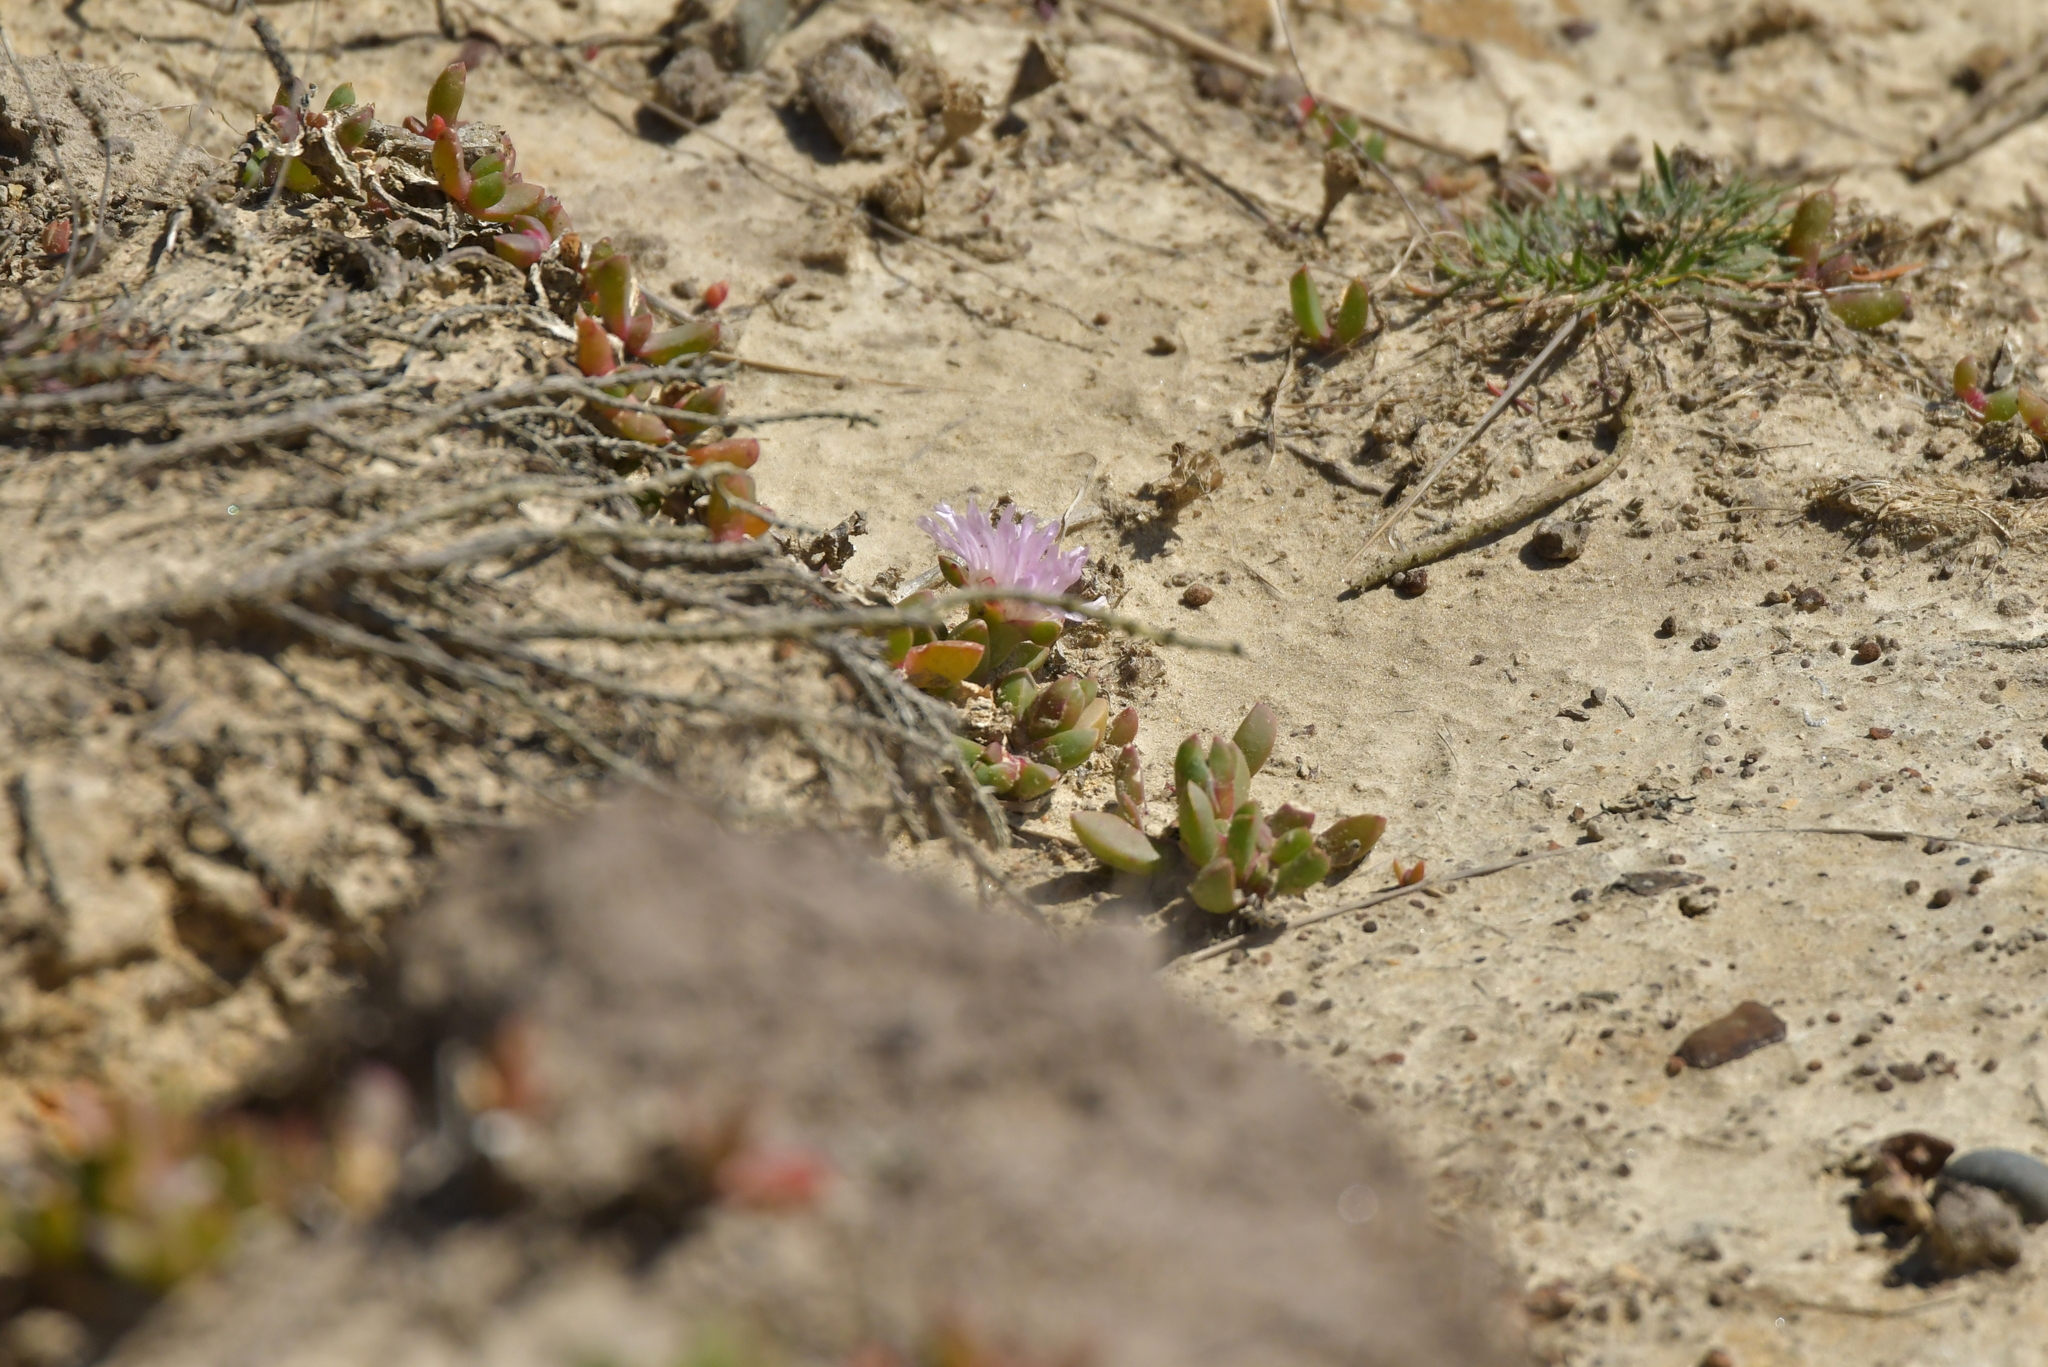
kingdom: Plantae
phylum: Tracheophyta
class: Magnoliopsida
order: Caryophyllales
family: Aizoaceae
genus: Disphyma
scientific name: Disphyma australe
